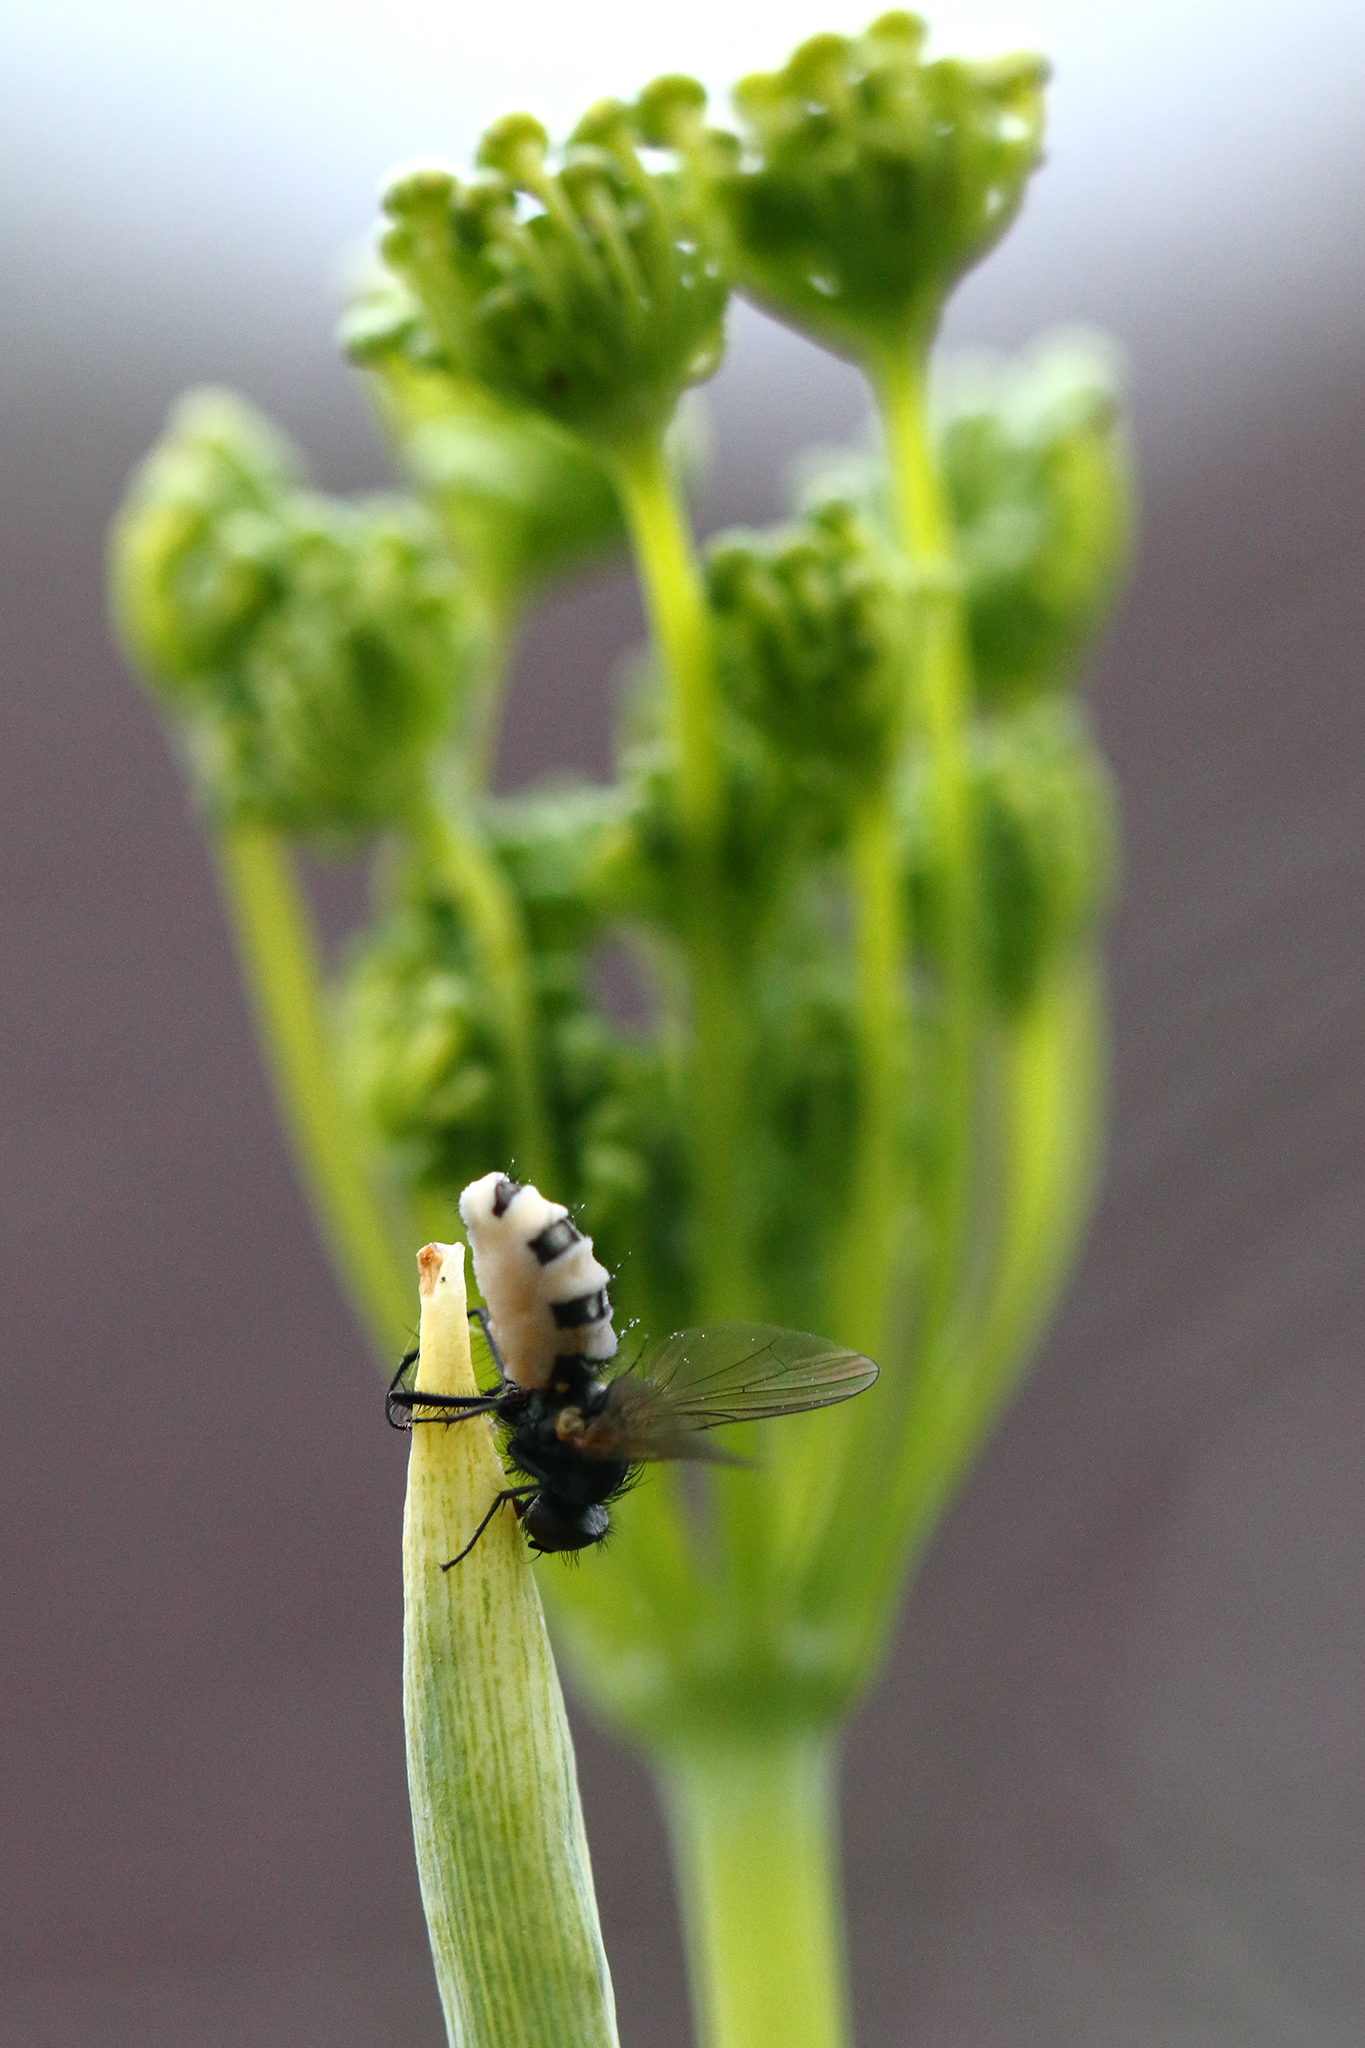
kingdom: Fungi
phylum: Entomophthoromycota
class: Entomophthoromycetes
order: Entomophthorales
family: Entomophthoraceae
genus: Entomophthora
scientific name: Entomophthora
